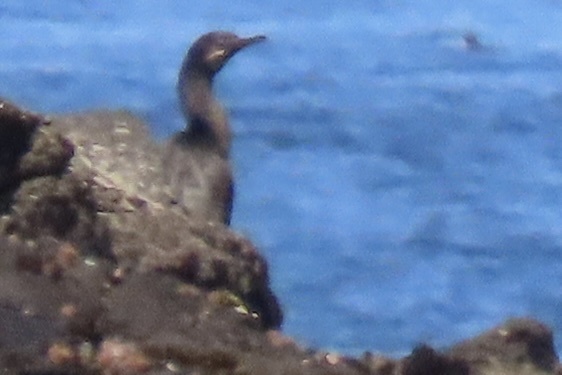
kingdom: Animalia
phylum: Chordata
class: Aves
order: Suliformes
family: Phalacrocoracidae
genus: Urile
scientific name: Urile penicillatus
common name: Brandt's cormorant
